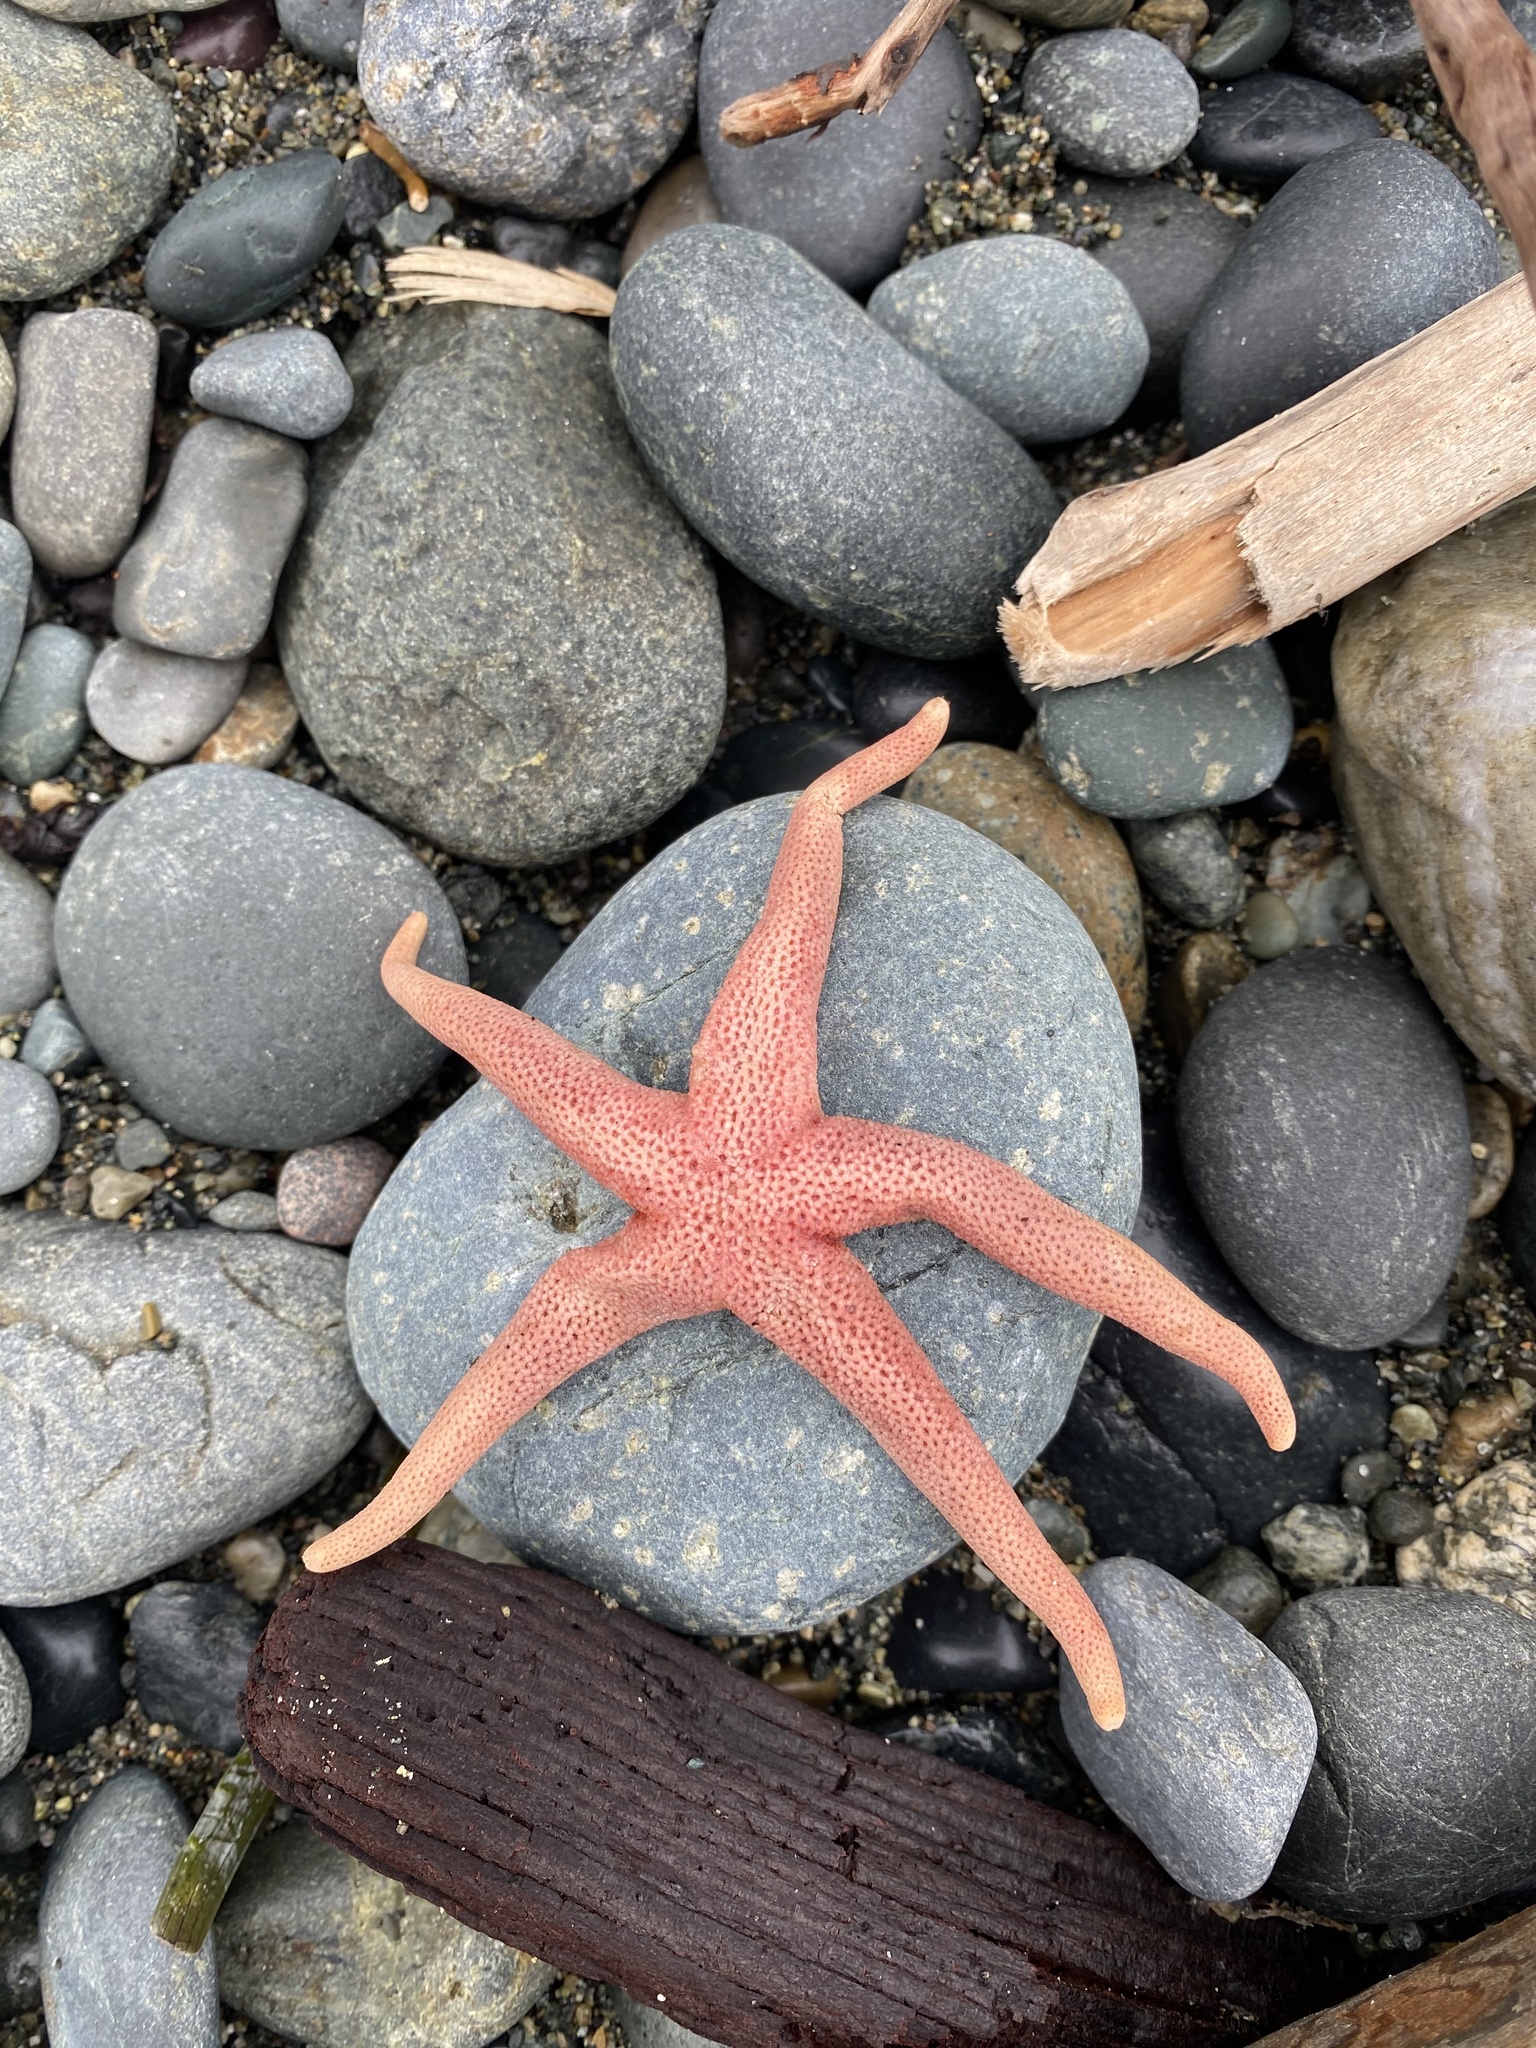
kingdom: Animalia
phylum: Chordata
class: Aves
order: Charadriiformes
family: Scolopacidae
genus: Arenaria
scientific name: Arenaria melanocephala
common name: Black turnstone
